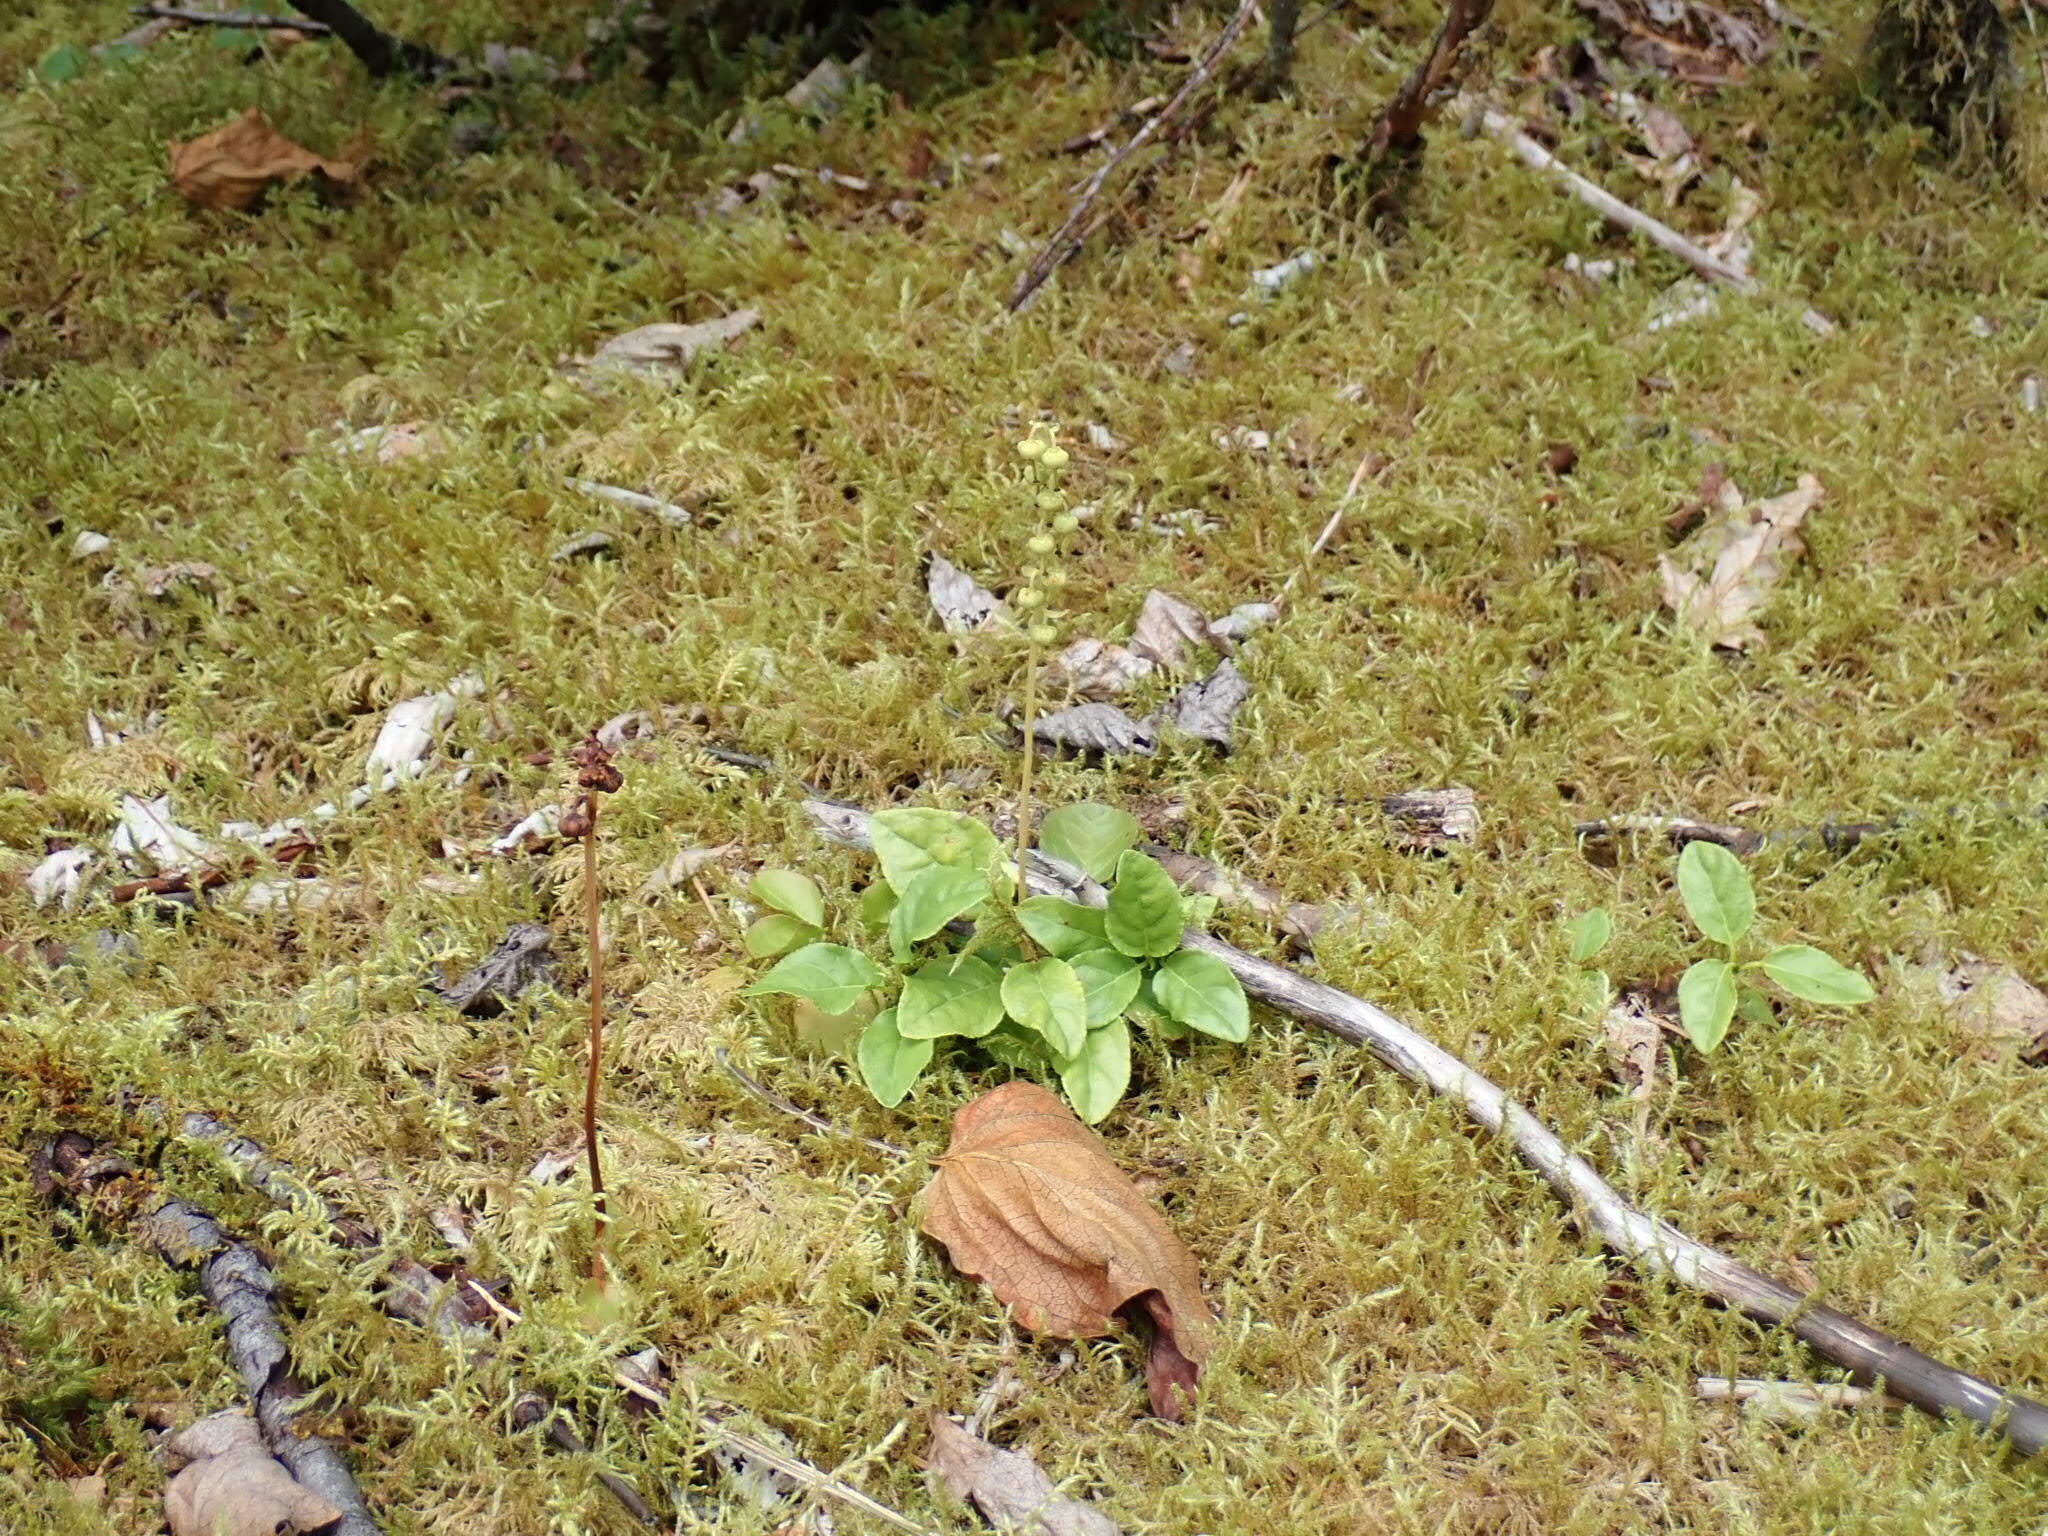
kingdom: Plantae
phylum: Tracheophyta
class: Magnoliopsida
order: Ericales
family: Ericaceae
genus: Orthilia
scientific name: Orthilia secunda
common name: One-sided orthilia
